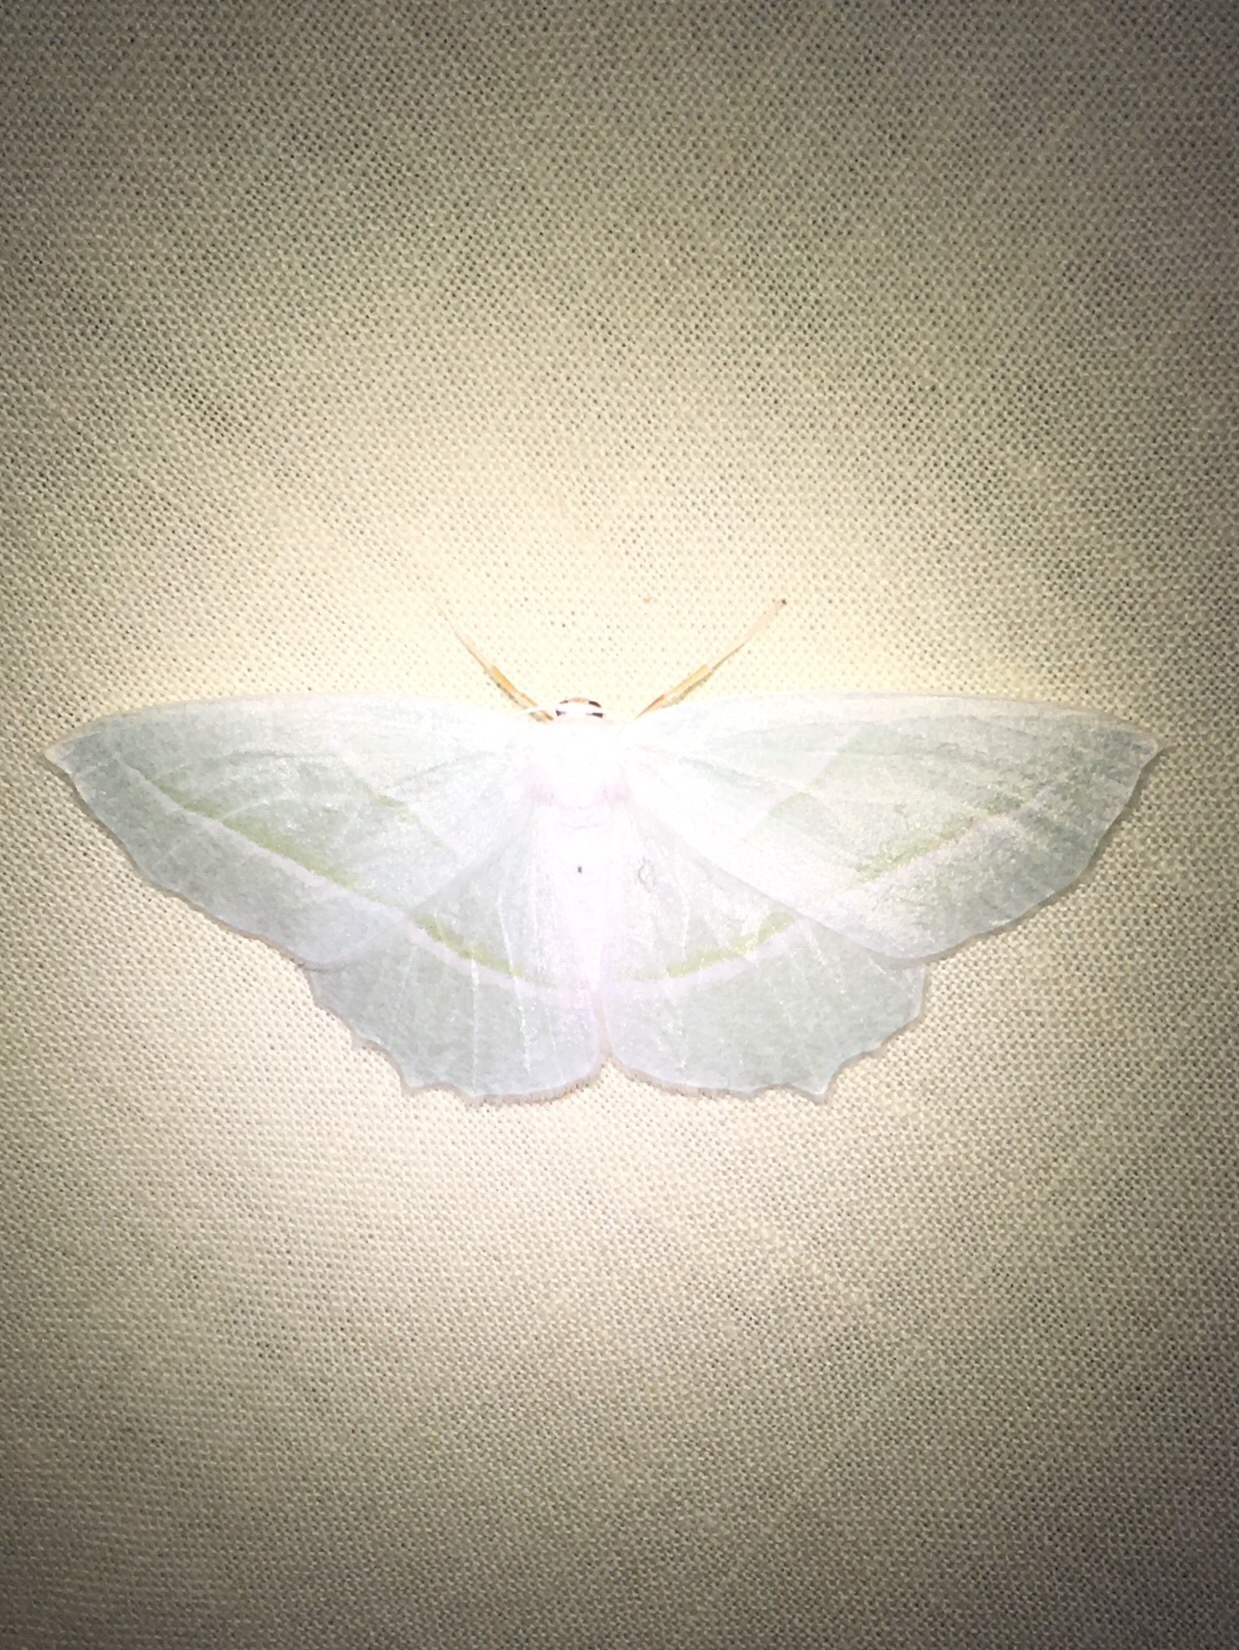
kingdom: Animalia
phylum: Arthropoda
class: Insecta
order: Lepidoptera
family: Geometridae
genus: Campaea
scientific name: Campaea perlata
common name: Fringed looper
